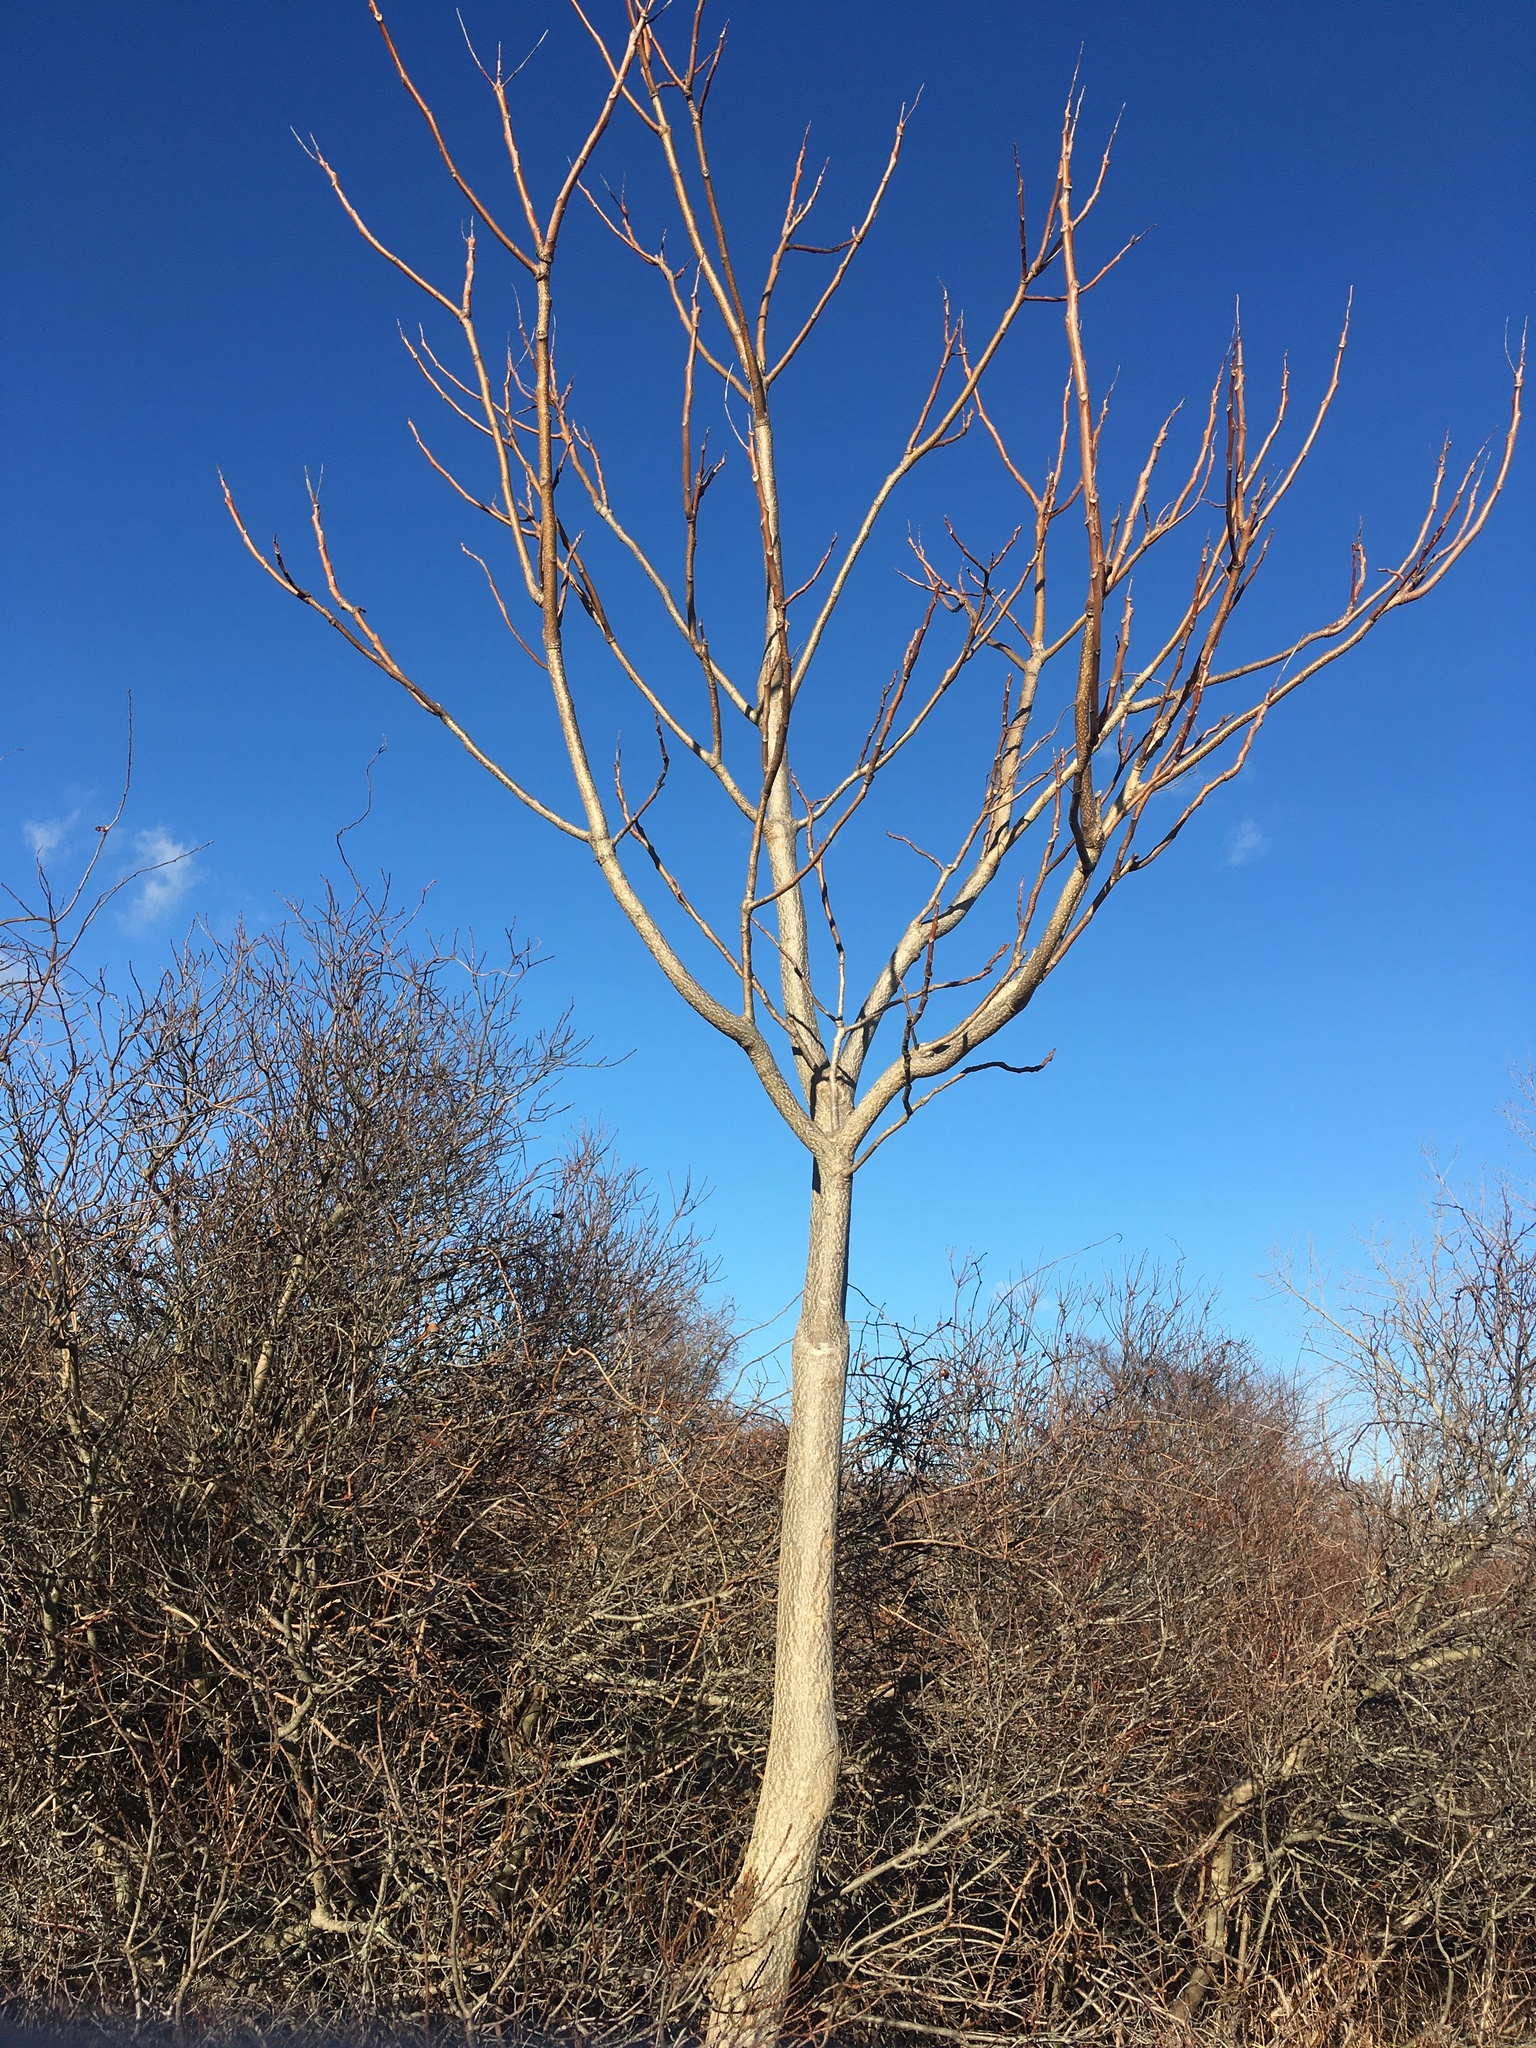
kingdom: Plantae
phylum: Tracheophyta
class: Magnoliopsida
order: Sapindales
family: Simaroubaceae
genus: Ailanthus
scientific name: Ailanthus altissima
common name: Tree-of-heaven
